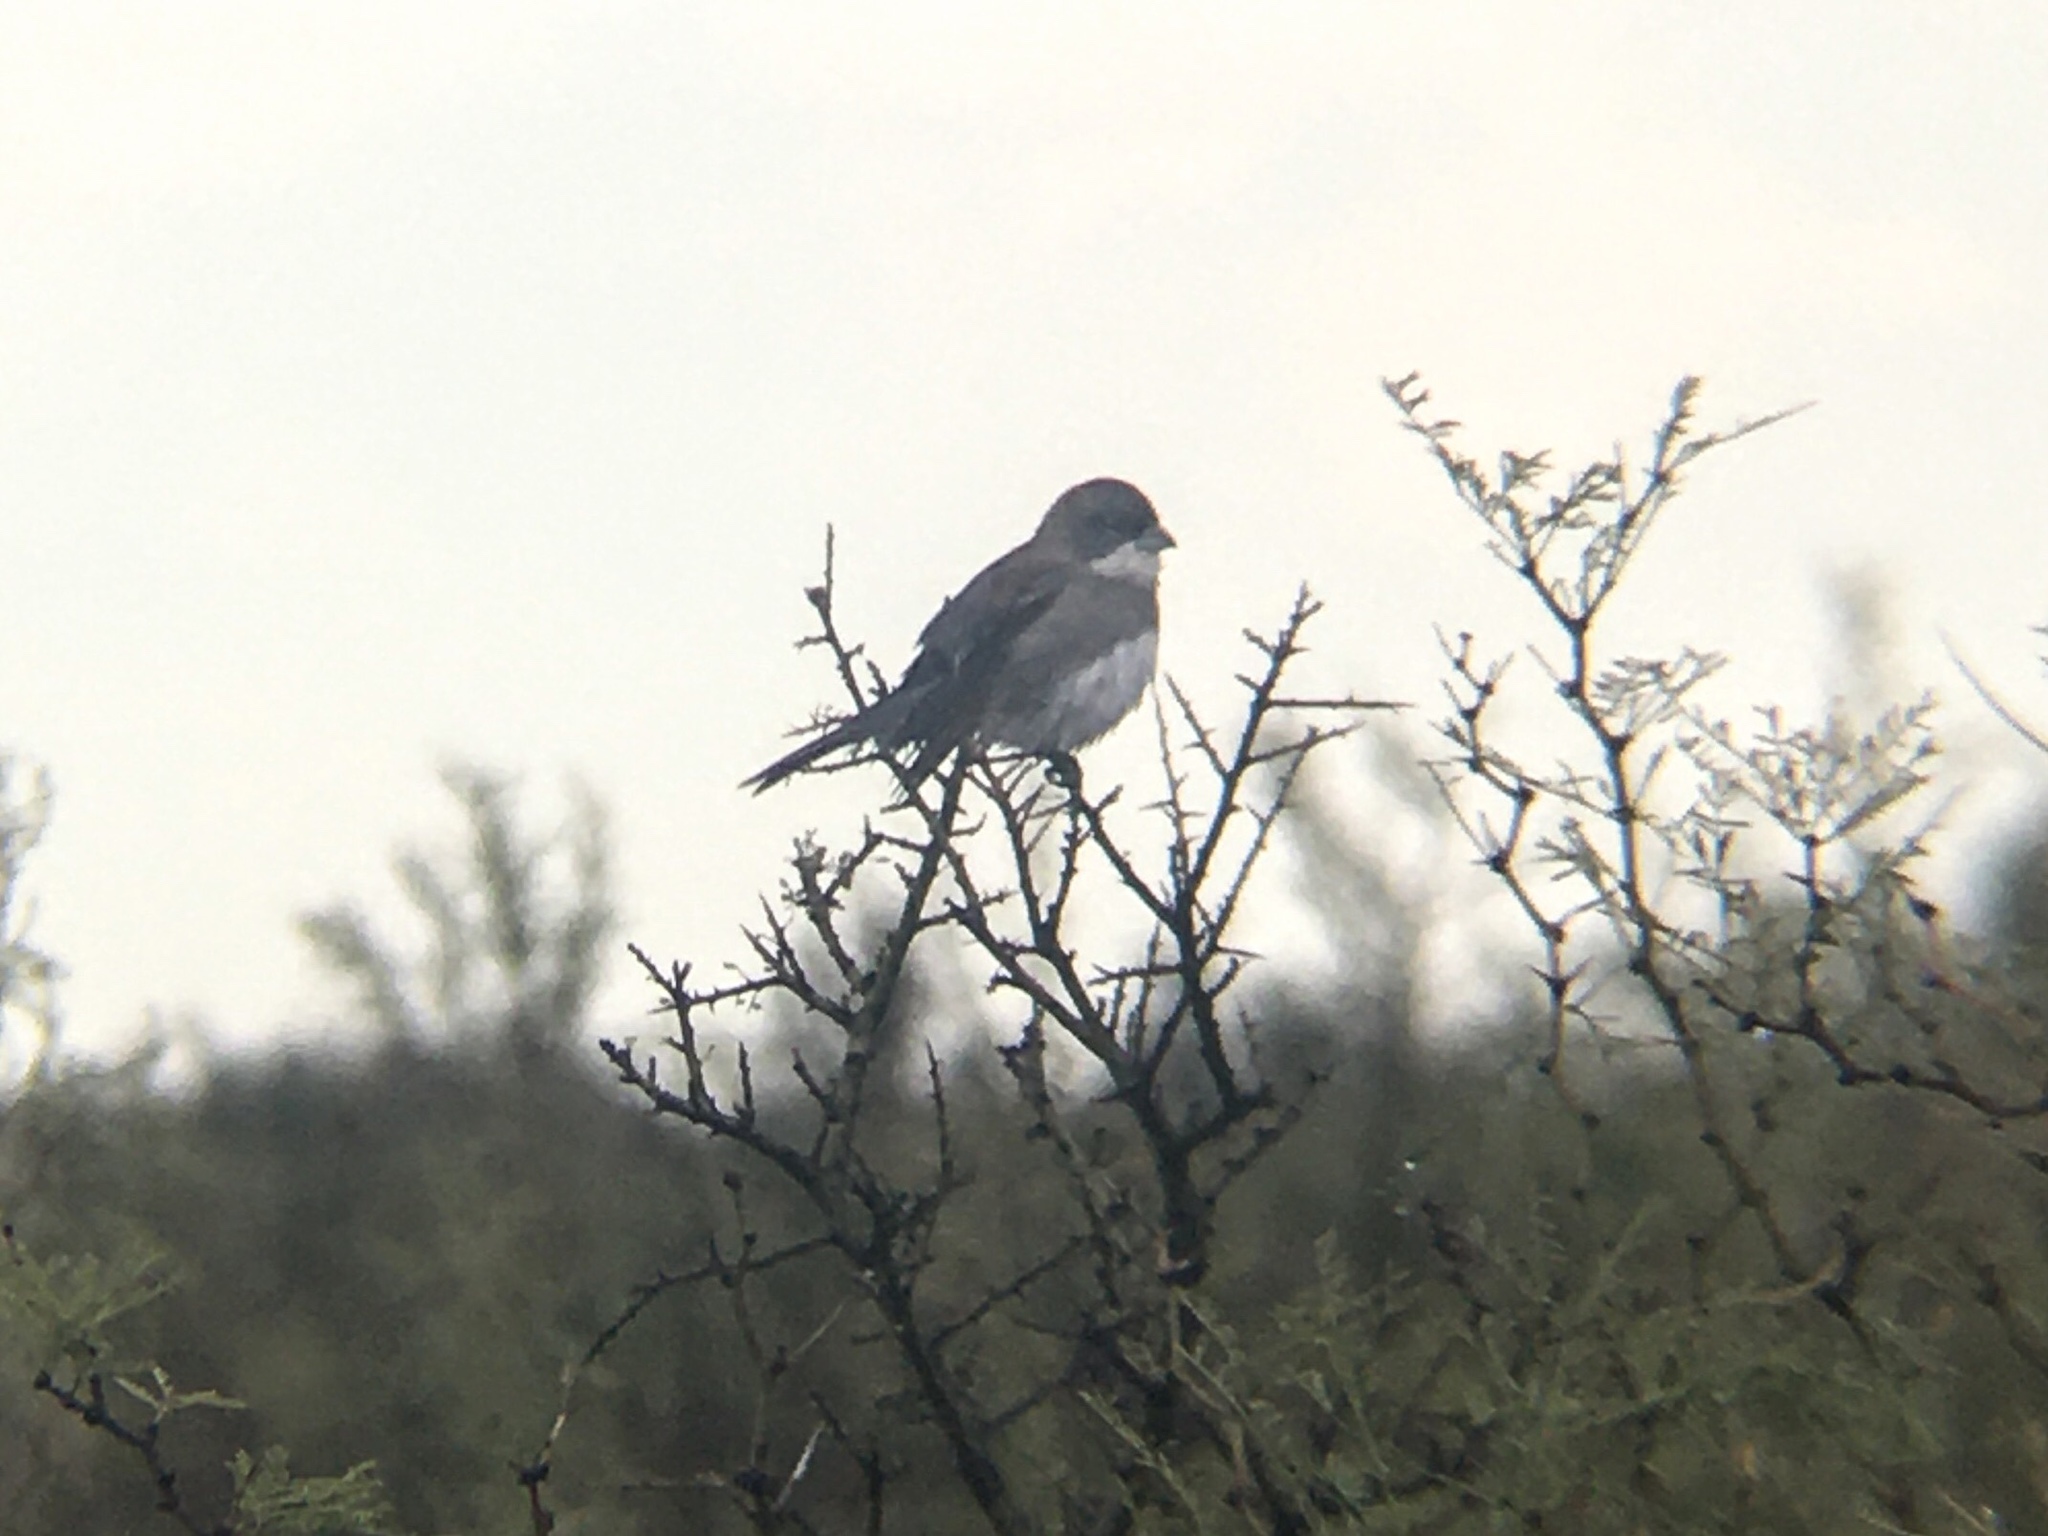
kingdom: Animalia
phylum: Chordata
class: Aves
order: Passeriformes
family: Thraupidae
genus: Diuca
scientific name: Diuca diuca
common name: Common diuca finch
